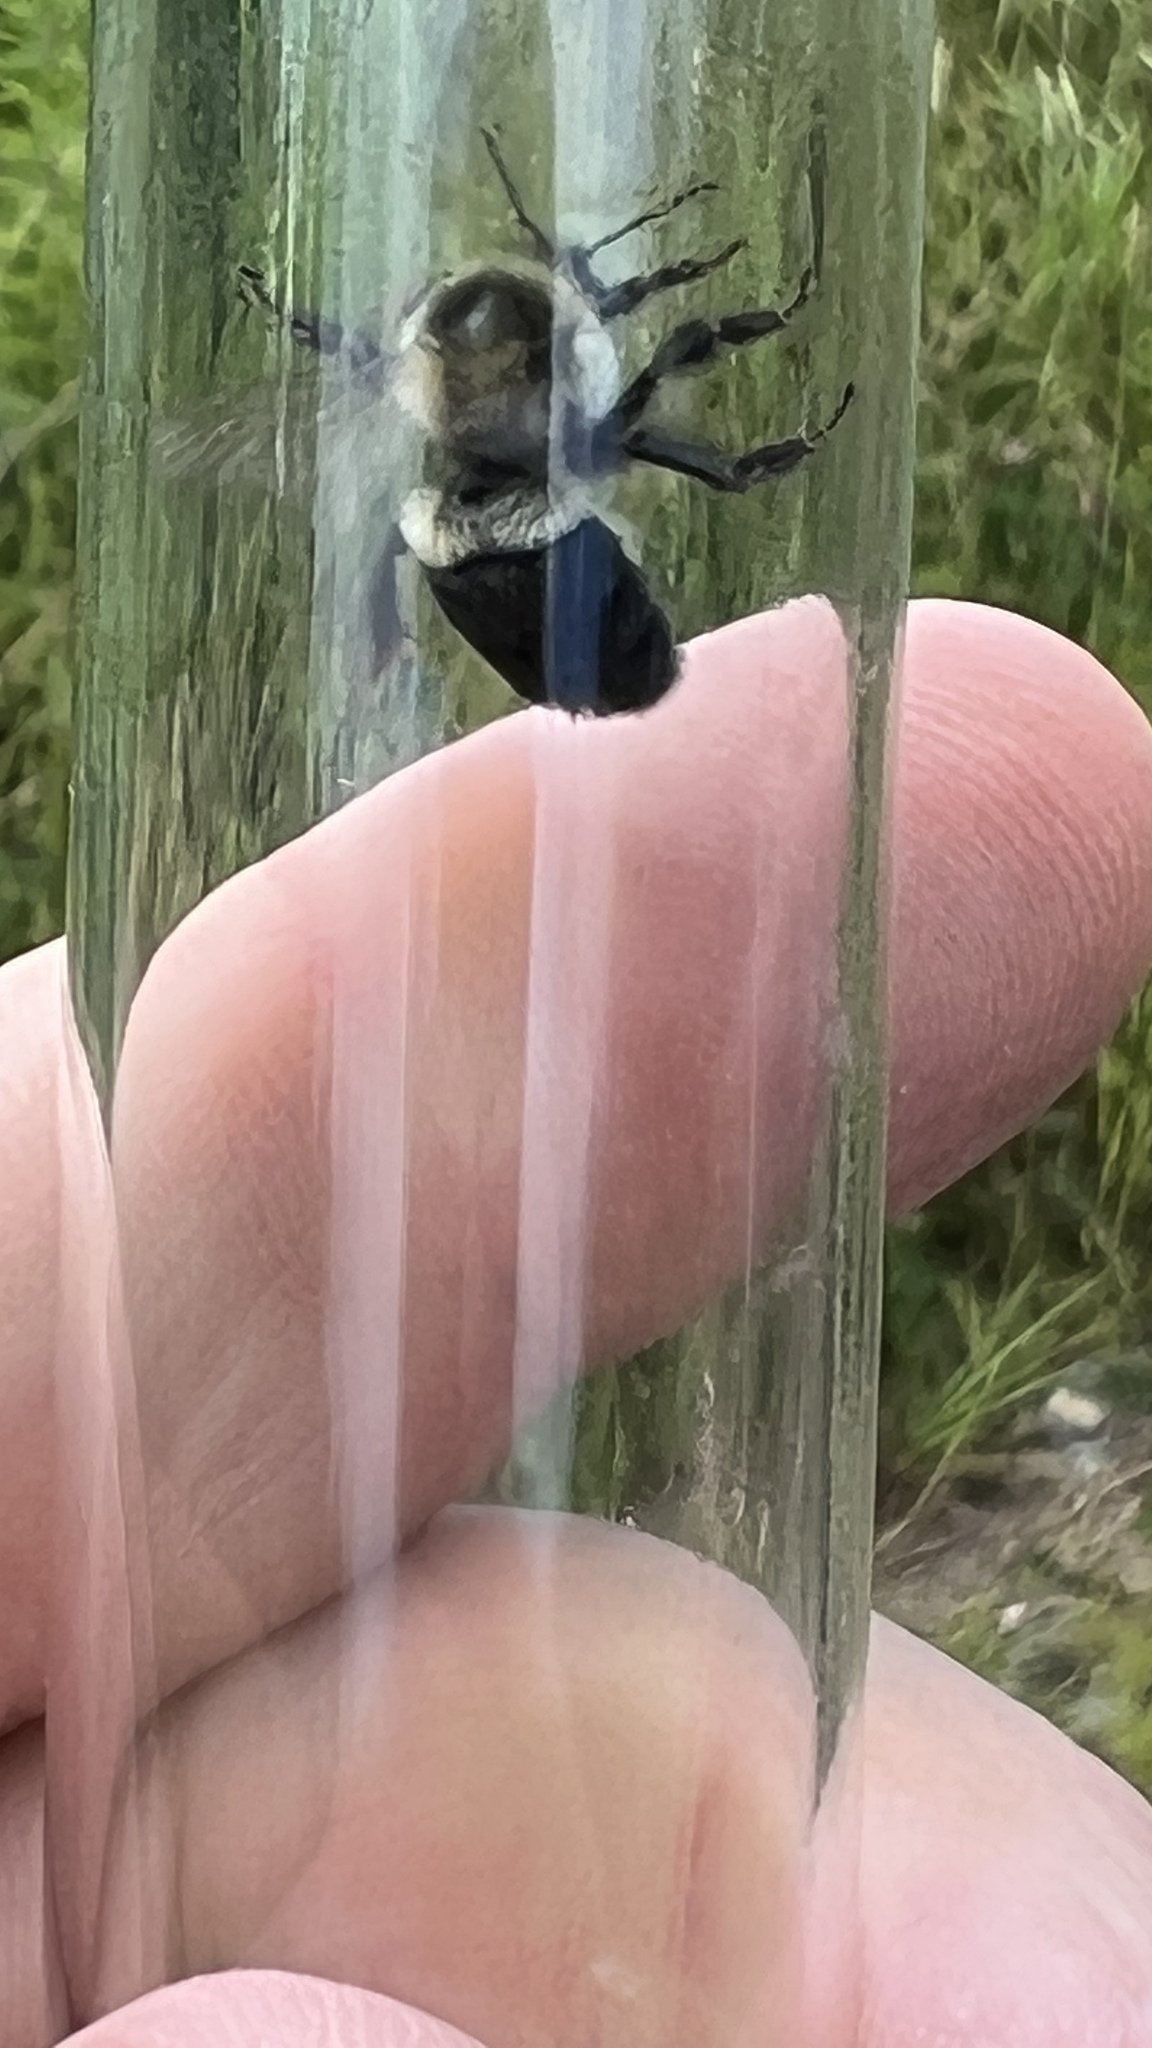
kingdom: Animalia
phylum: Arthropoda
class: Insecta
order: Hymenoptera
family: Apidae
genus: Bombus
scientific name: Bombus impatiens
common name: Common eastern bumble bee
